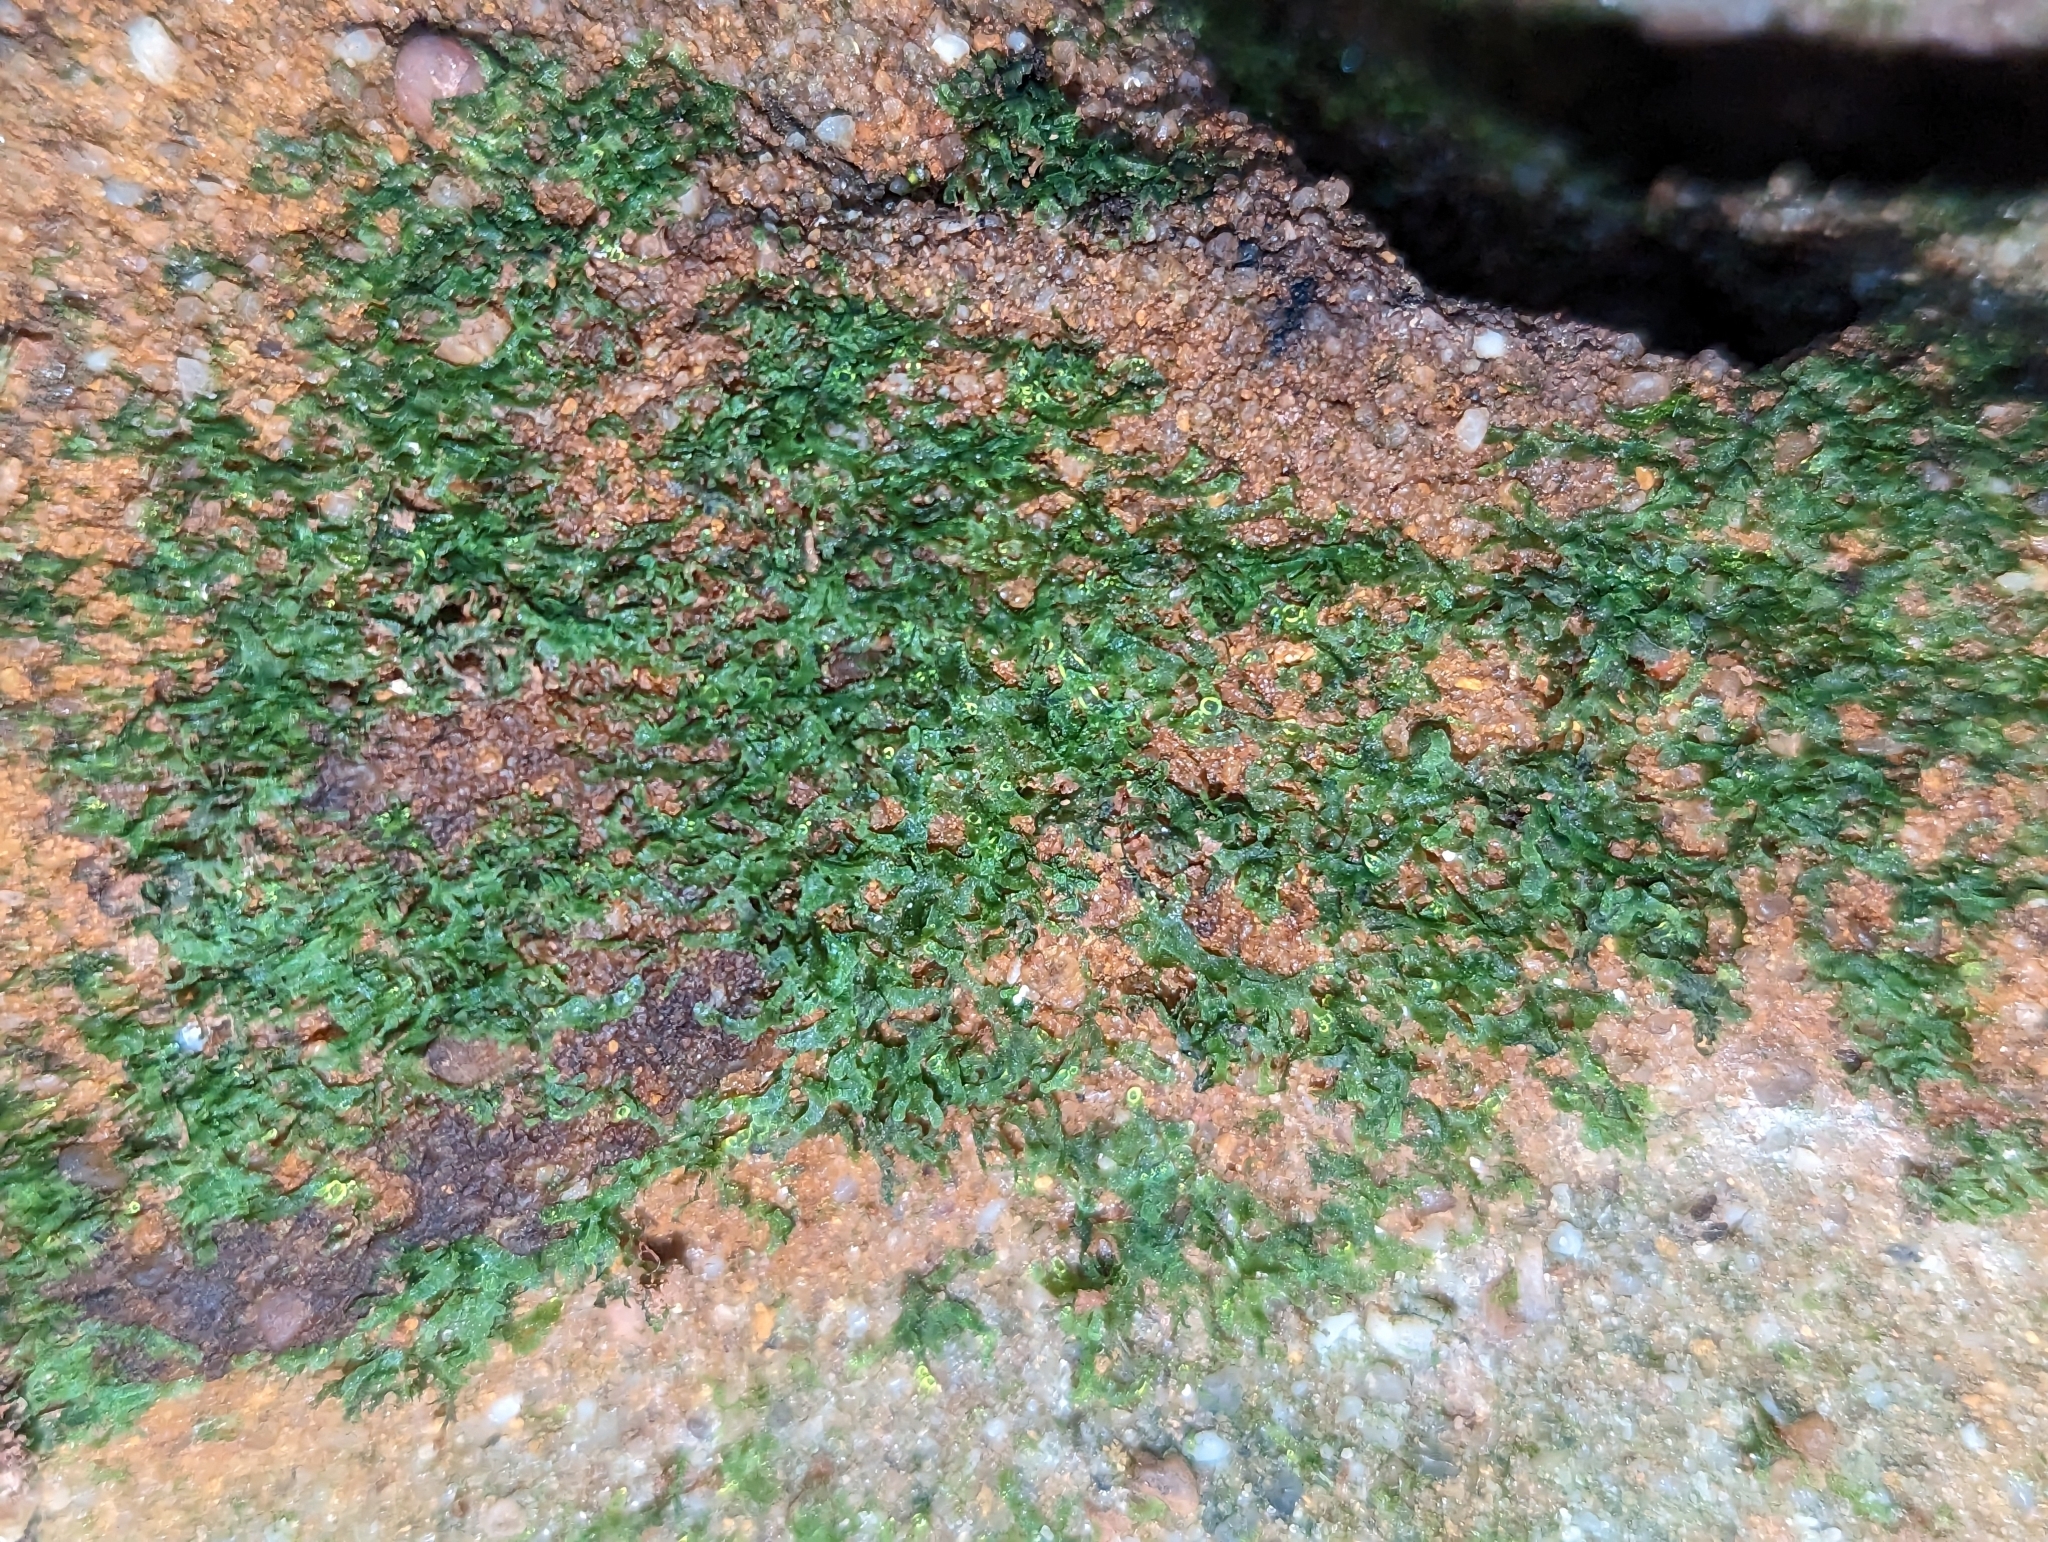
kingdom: Plantae
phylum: Tracheophyta
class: Polypodiopsida
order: Polypodiales
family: Pteridaceae
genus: Vittaria
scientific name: Vittaria appalachiana
